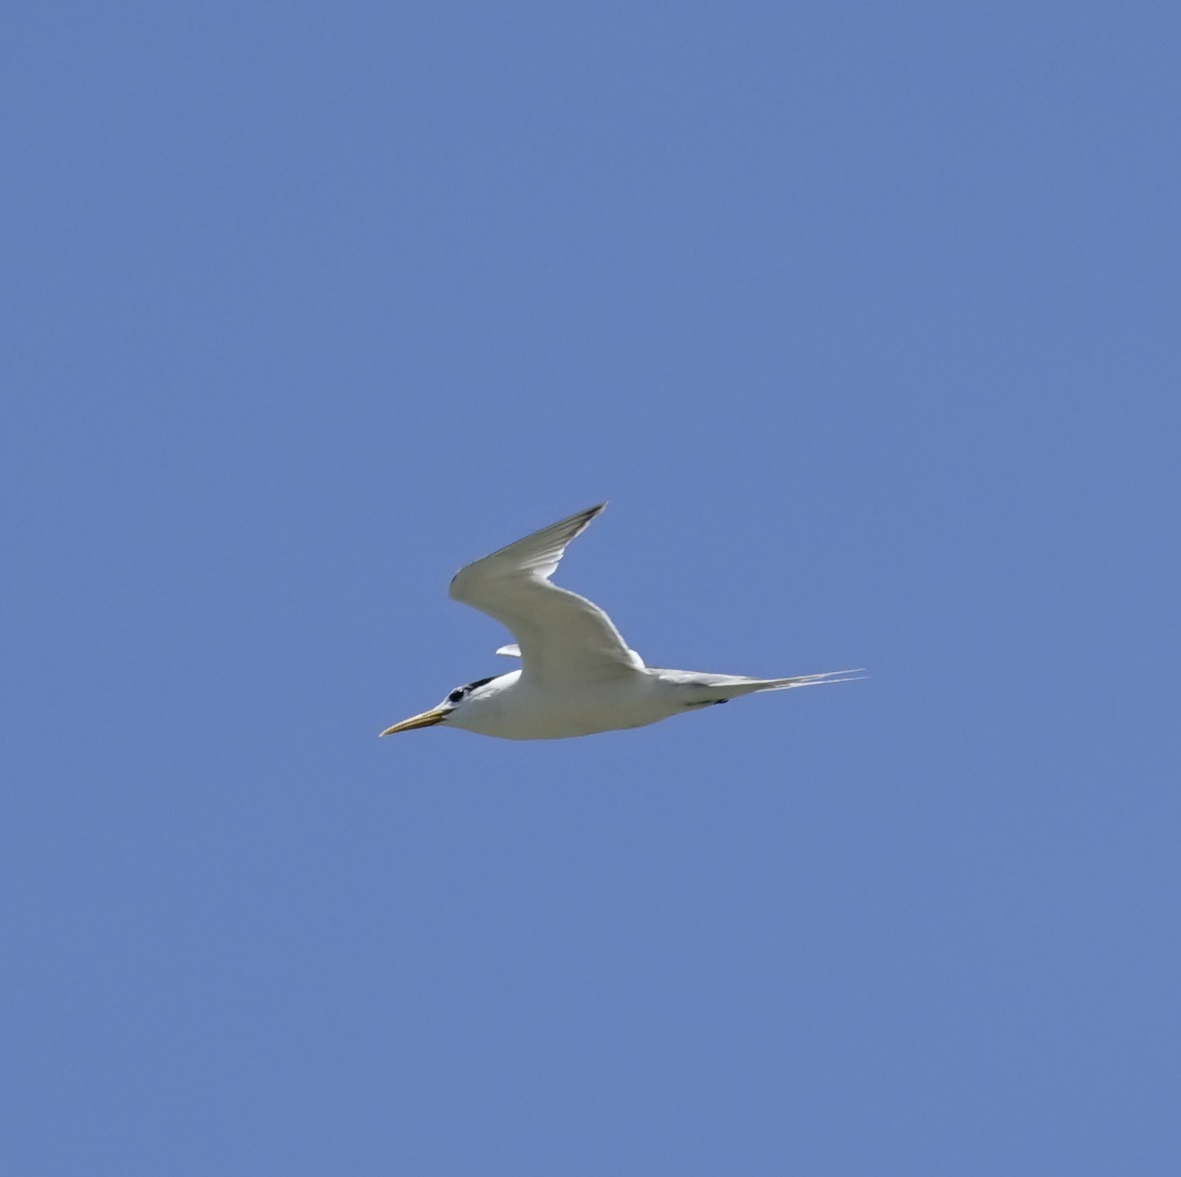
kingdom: Animalia
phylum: Chordata
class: Aves
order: Charadriiformes
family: Laridae
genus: Thalasseus
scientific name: Thalasseus bergii
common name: Greater crested tern
